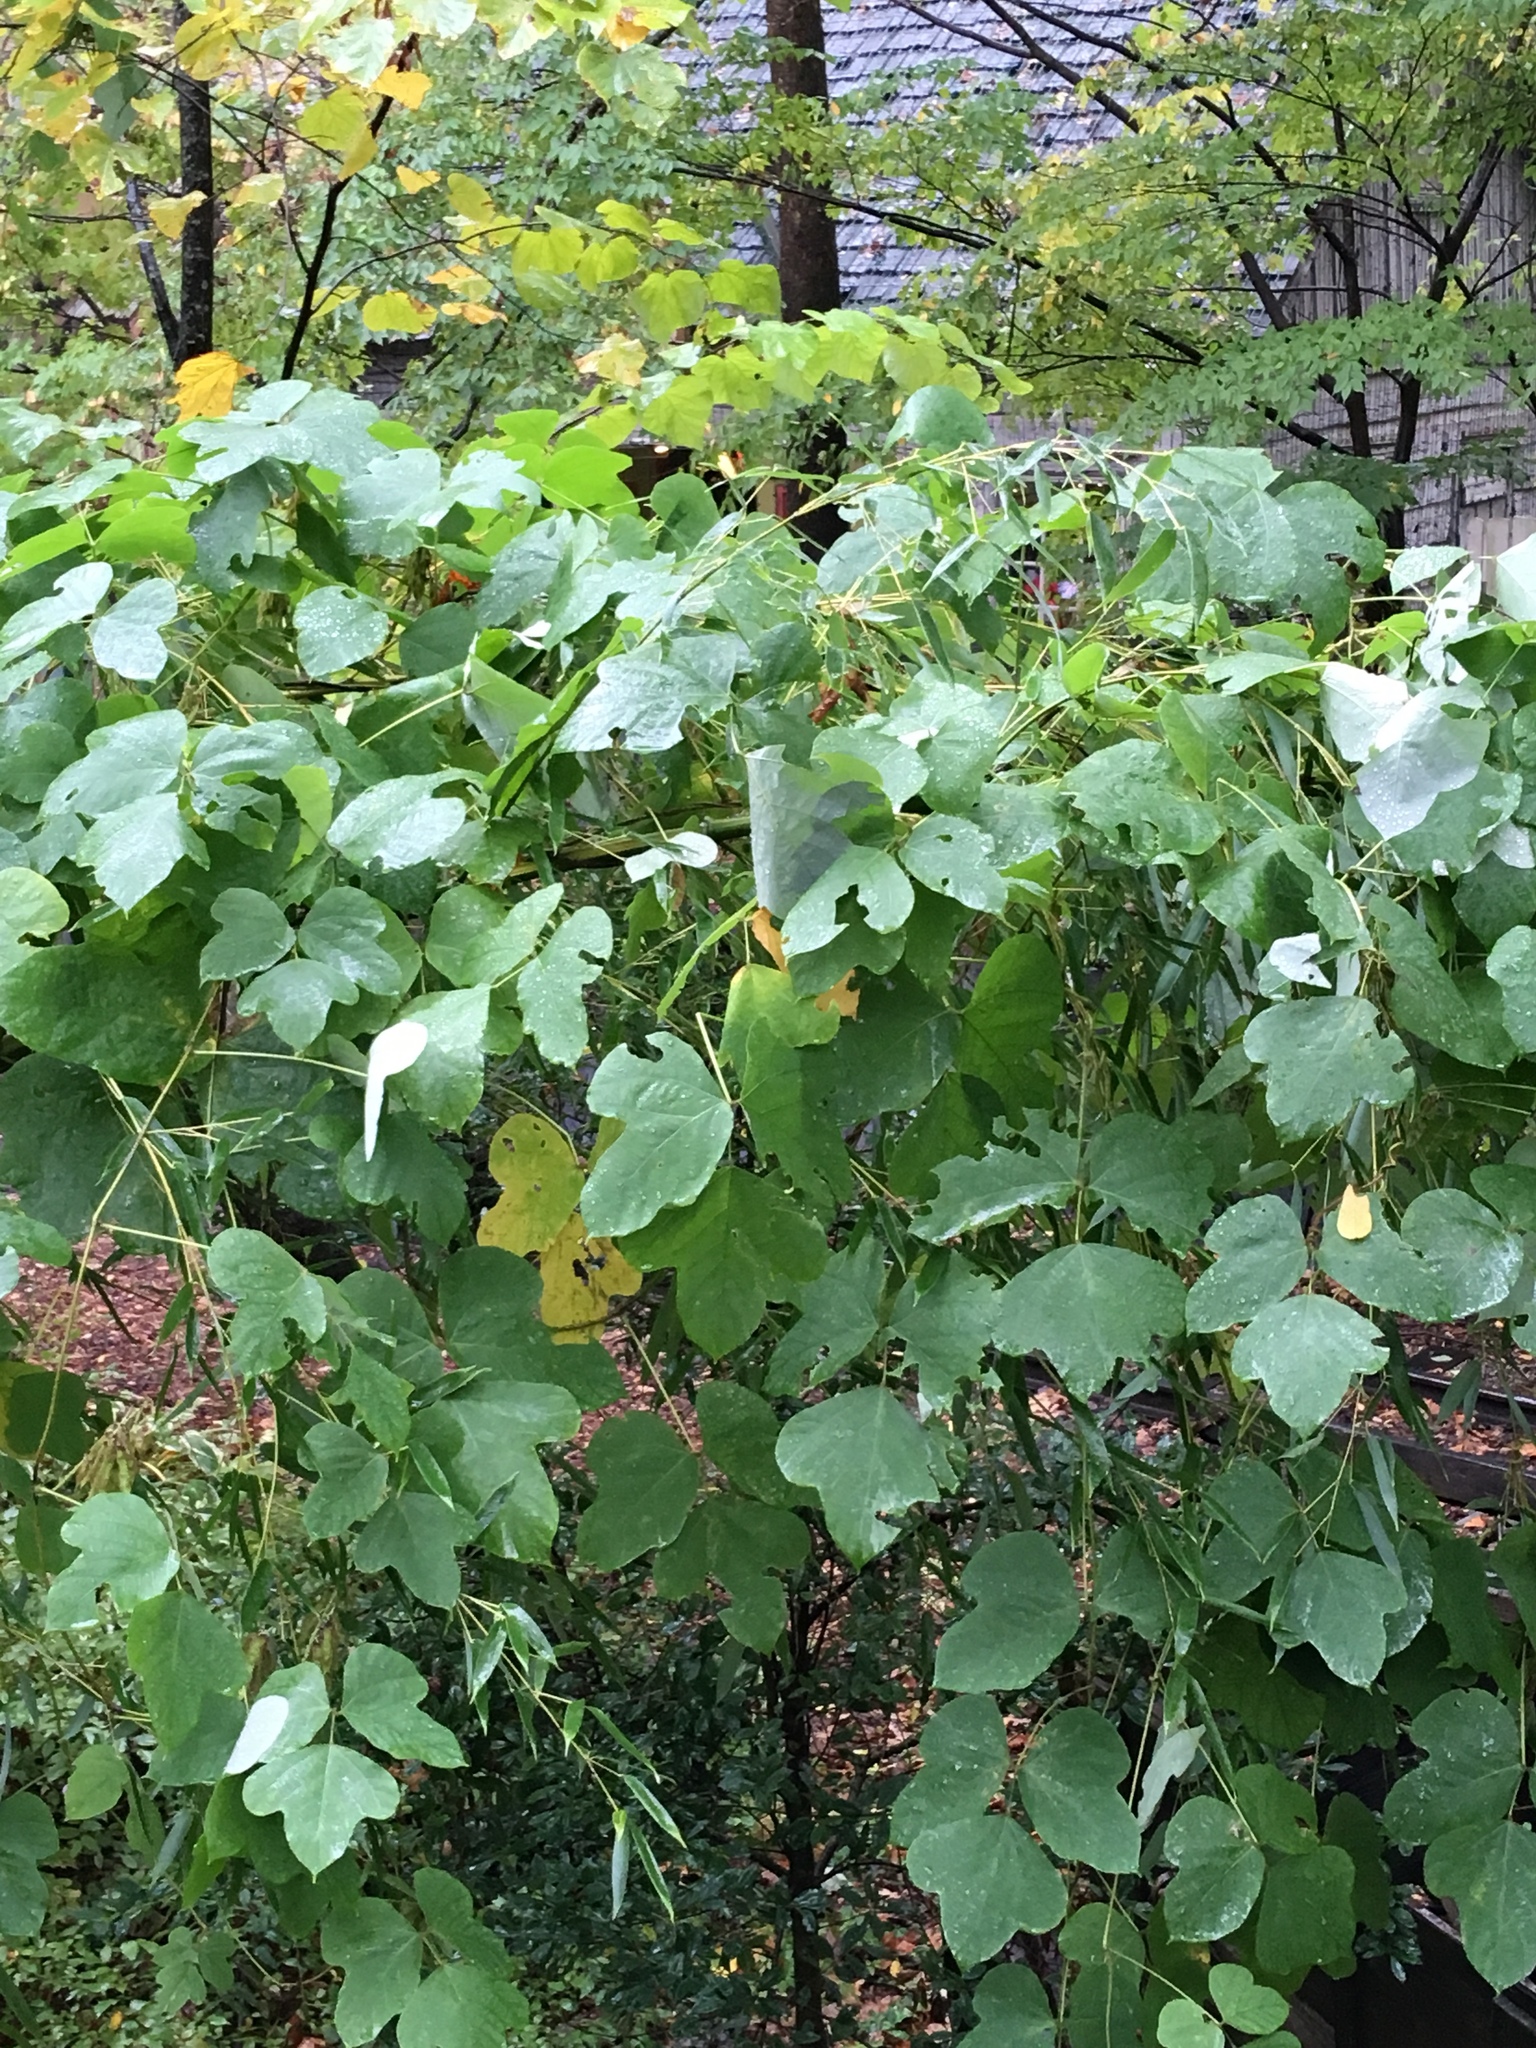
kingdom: Plantae
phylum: Tracheophyta
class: Magnoliopsida
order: Fabales
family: Fabaceae
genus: Pueraria
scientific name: Pueraria montana
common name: Kudzu
